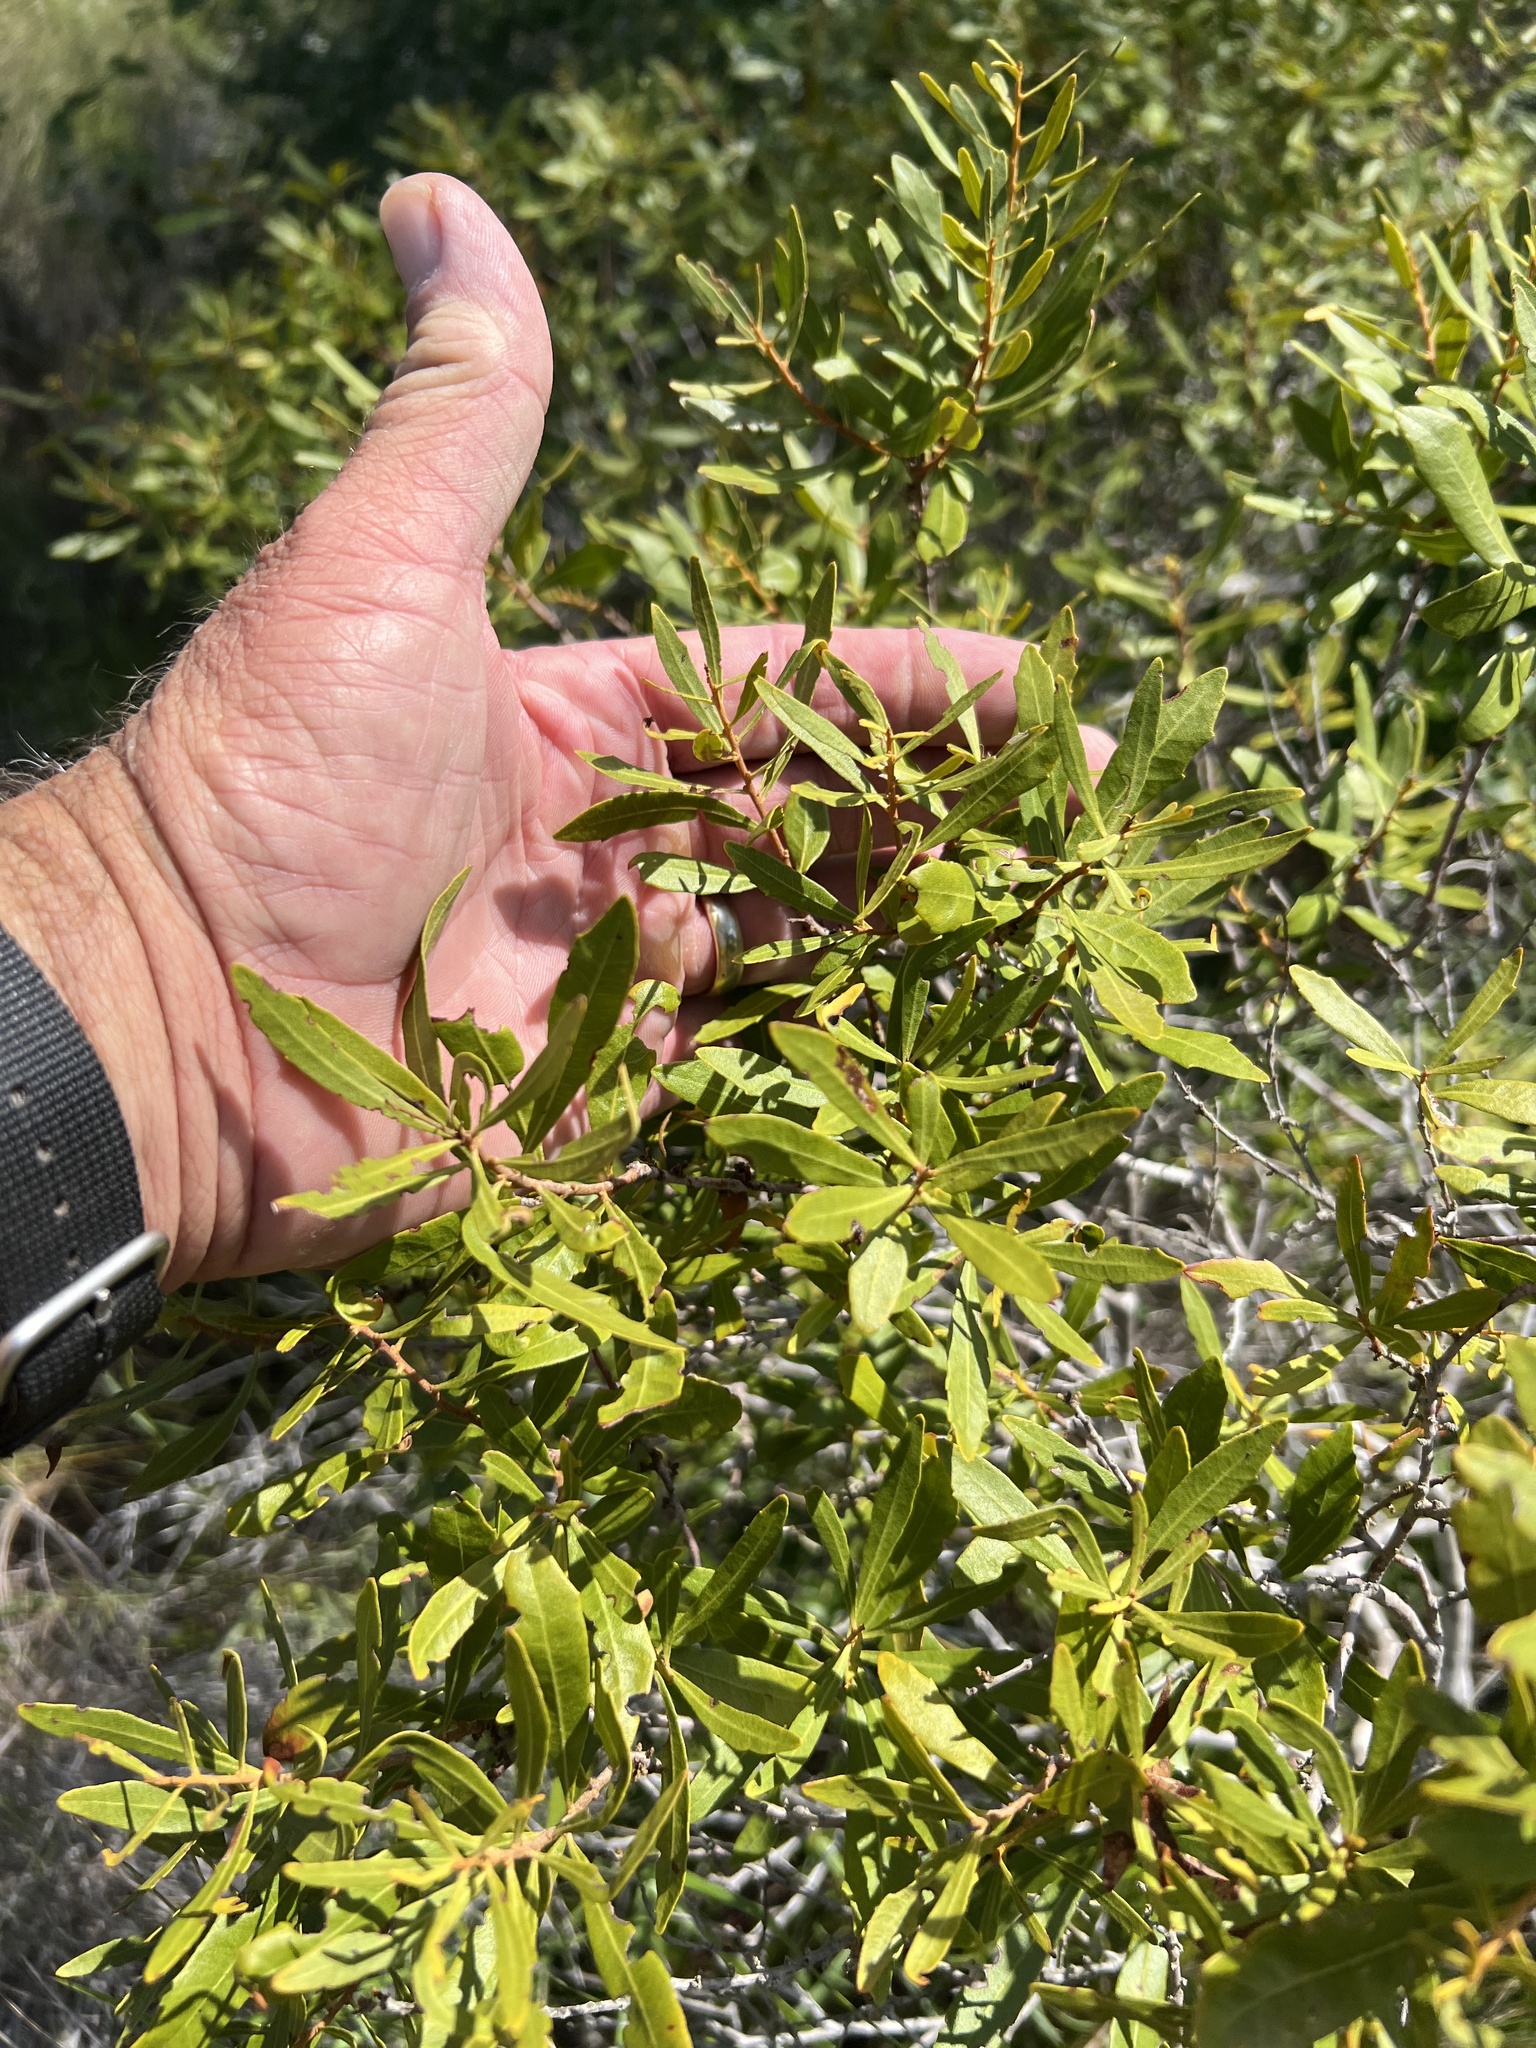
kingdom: Plantae
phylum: Tracheophyta
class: Magnoliopsida
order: Fagales
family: Myricaceae
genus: Morella
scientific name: Morella cerifera
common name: Wax myrtle
